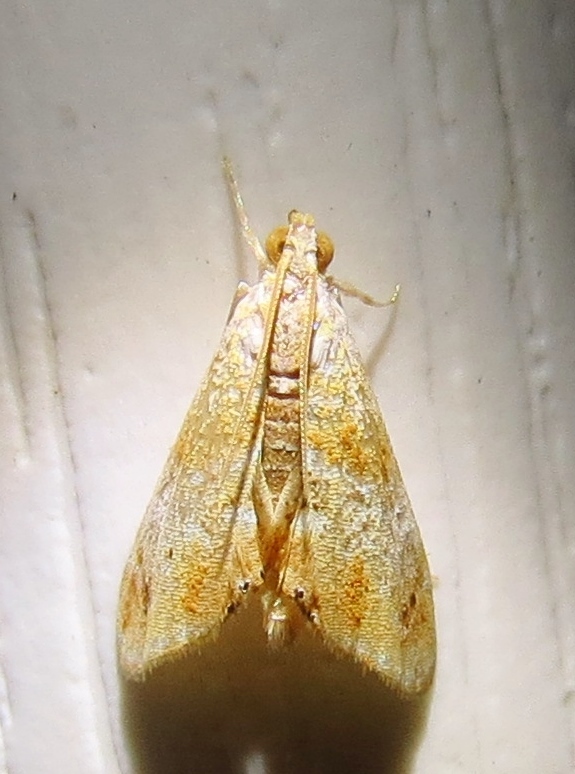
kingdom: Animalia
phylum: Arthropoda
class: Insecta
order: Lepidoptera
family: Crambidae
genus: Dicymolomia
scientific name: Dicymolomia julianalis
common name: Julia's dicymolomia moth
